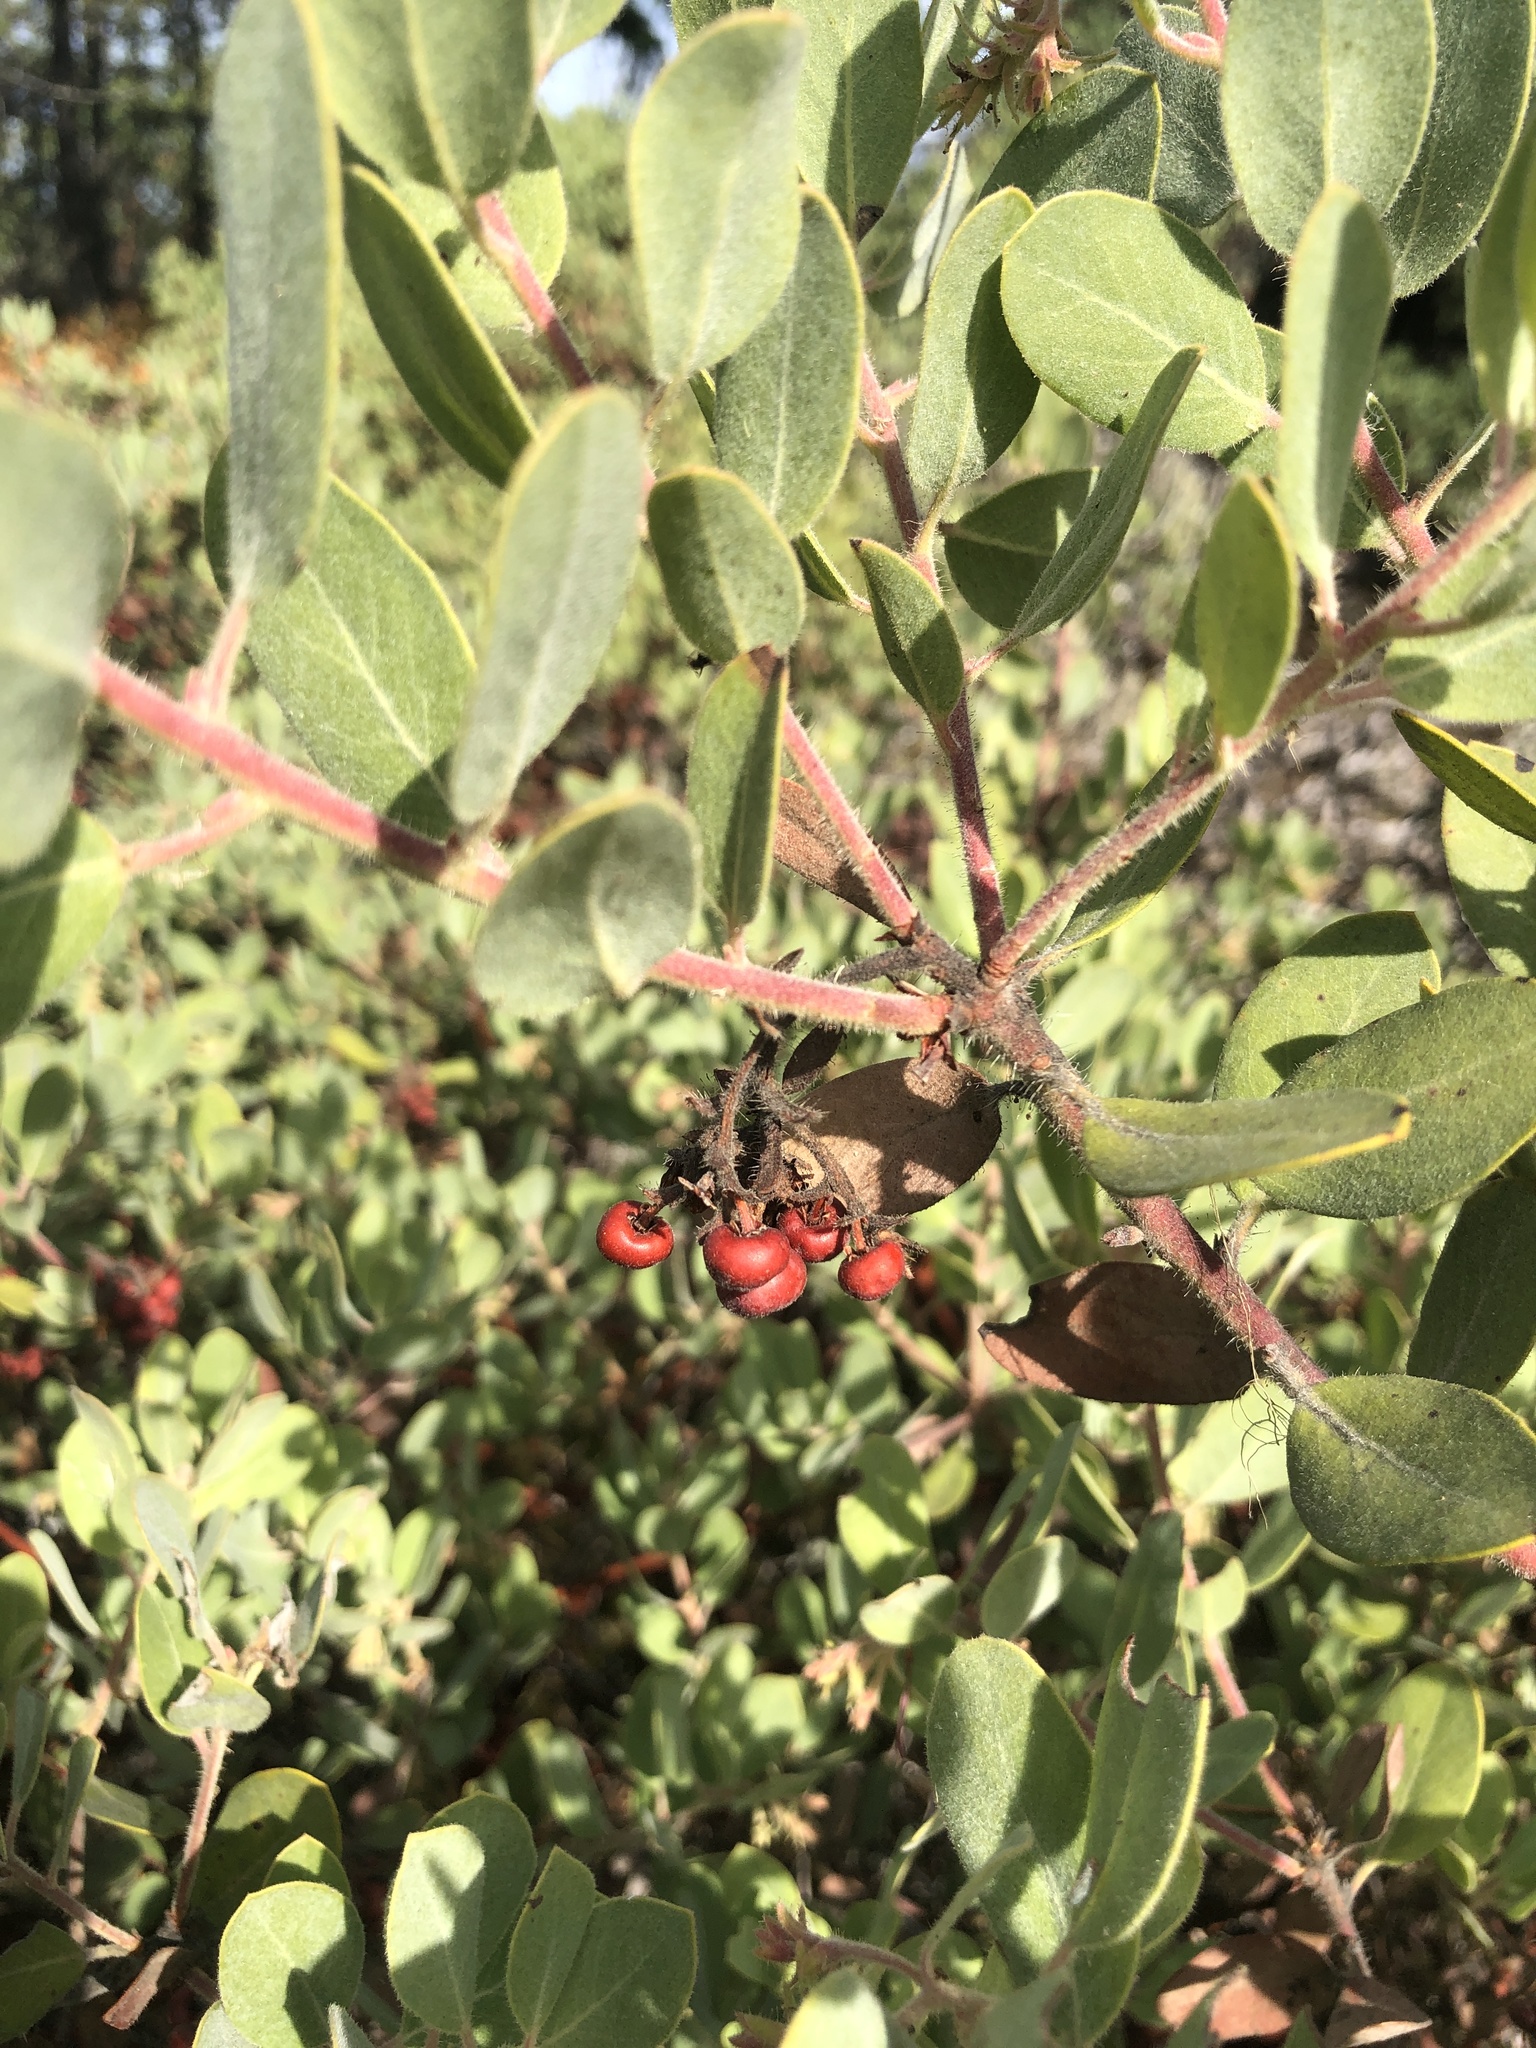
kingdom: Plantae
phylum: Tracheophyta
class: Magnoliopsida
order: Ericales
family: Ericaceae
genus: Arctostaphylos
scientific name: Arctostaphylos columbiana
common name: Bristly bearberry
